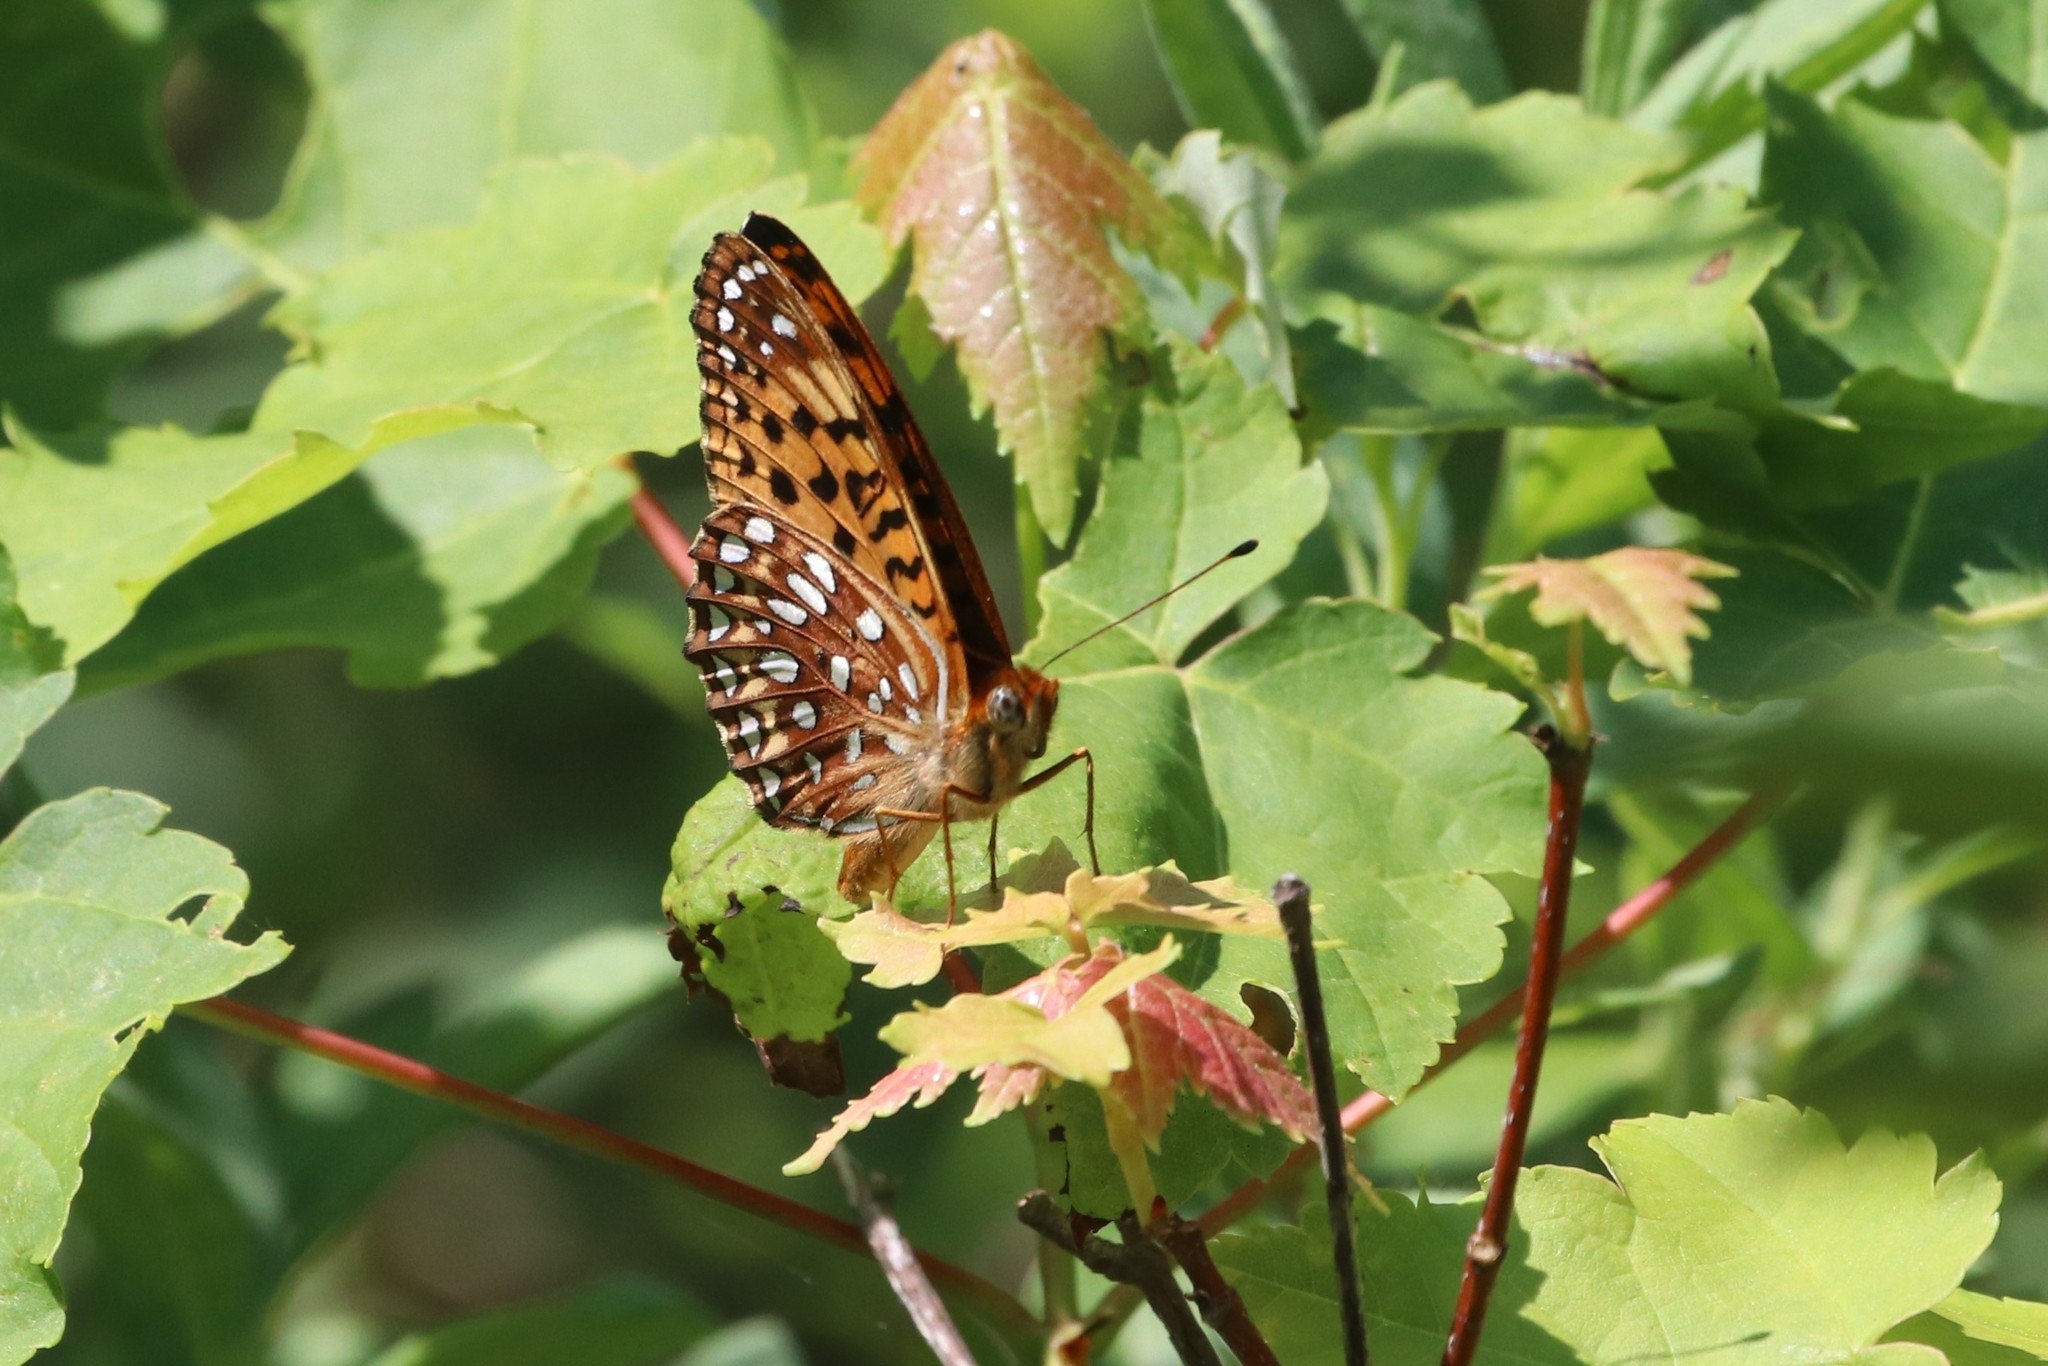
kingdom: Animalia
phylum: Arthropoda
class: Insecta
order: Lepidoptera
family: Nymphalidae
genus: Speyeria
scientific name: Speyeria atlantis
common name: Atlantis fritillary
